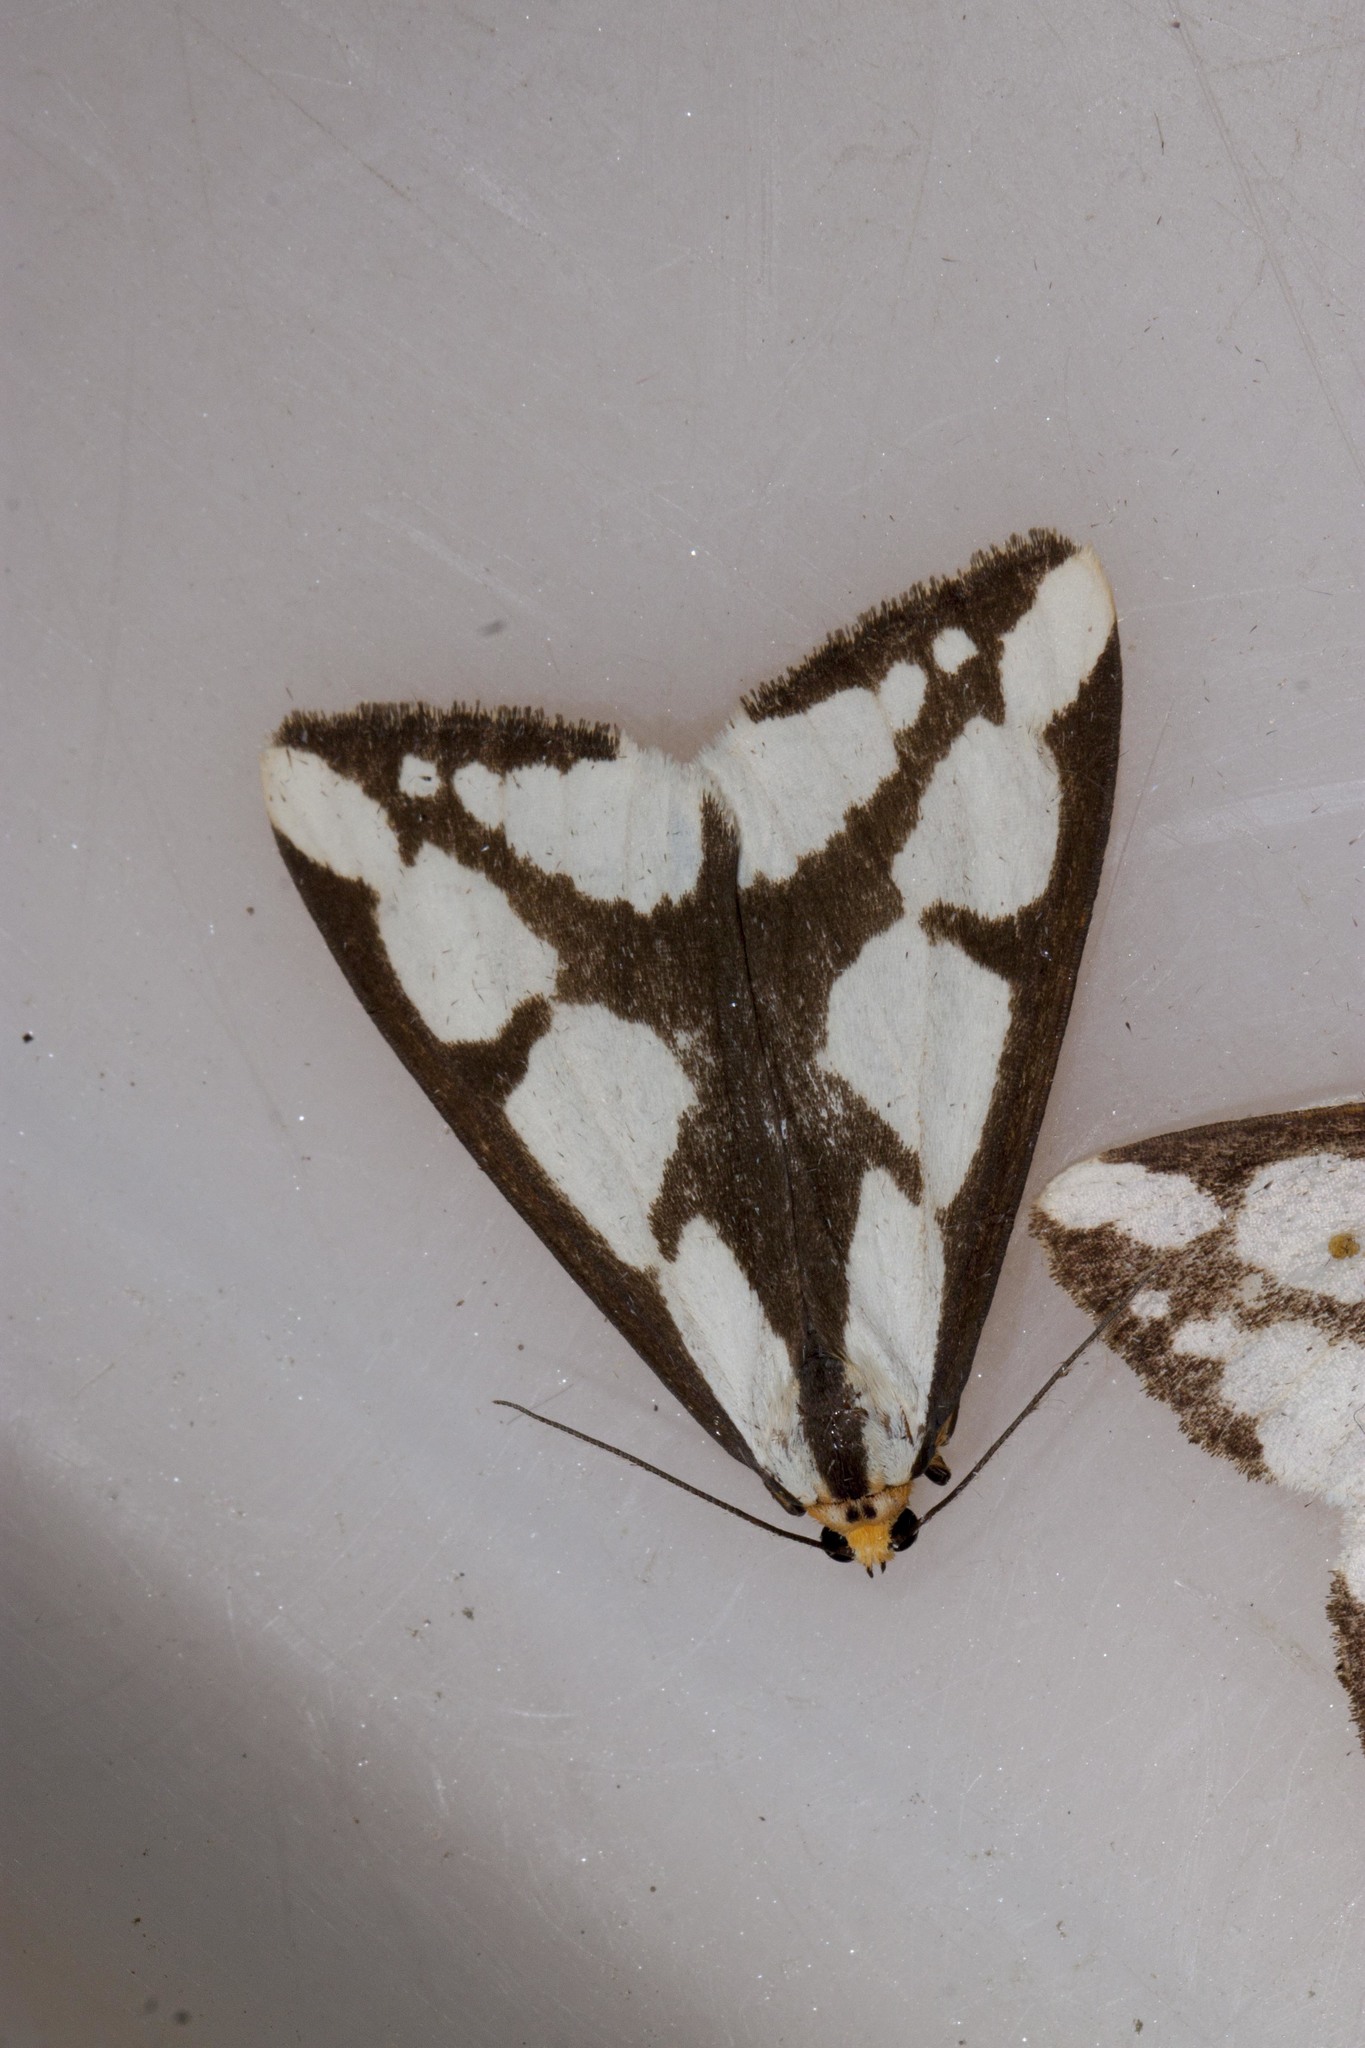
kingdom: Animalia
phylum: Arthropoda
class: Insecta
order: Lepidoptera
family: Erebidae
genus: Haploa
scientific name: Haploa lecontei
